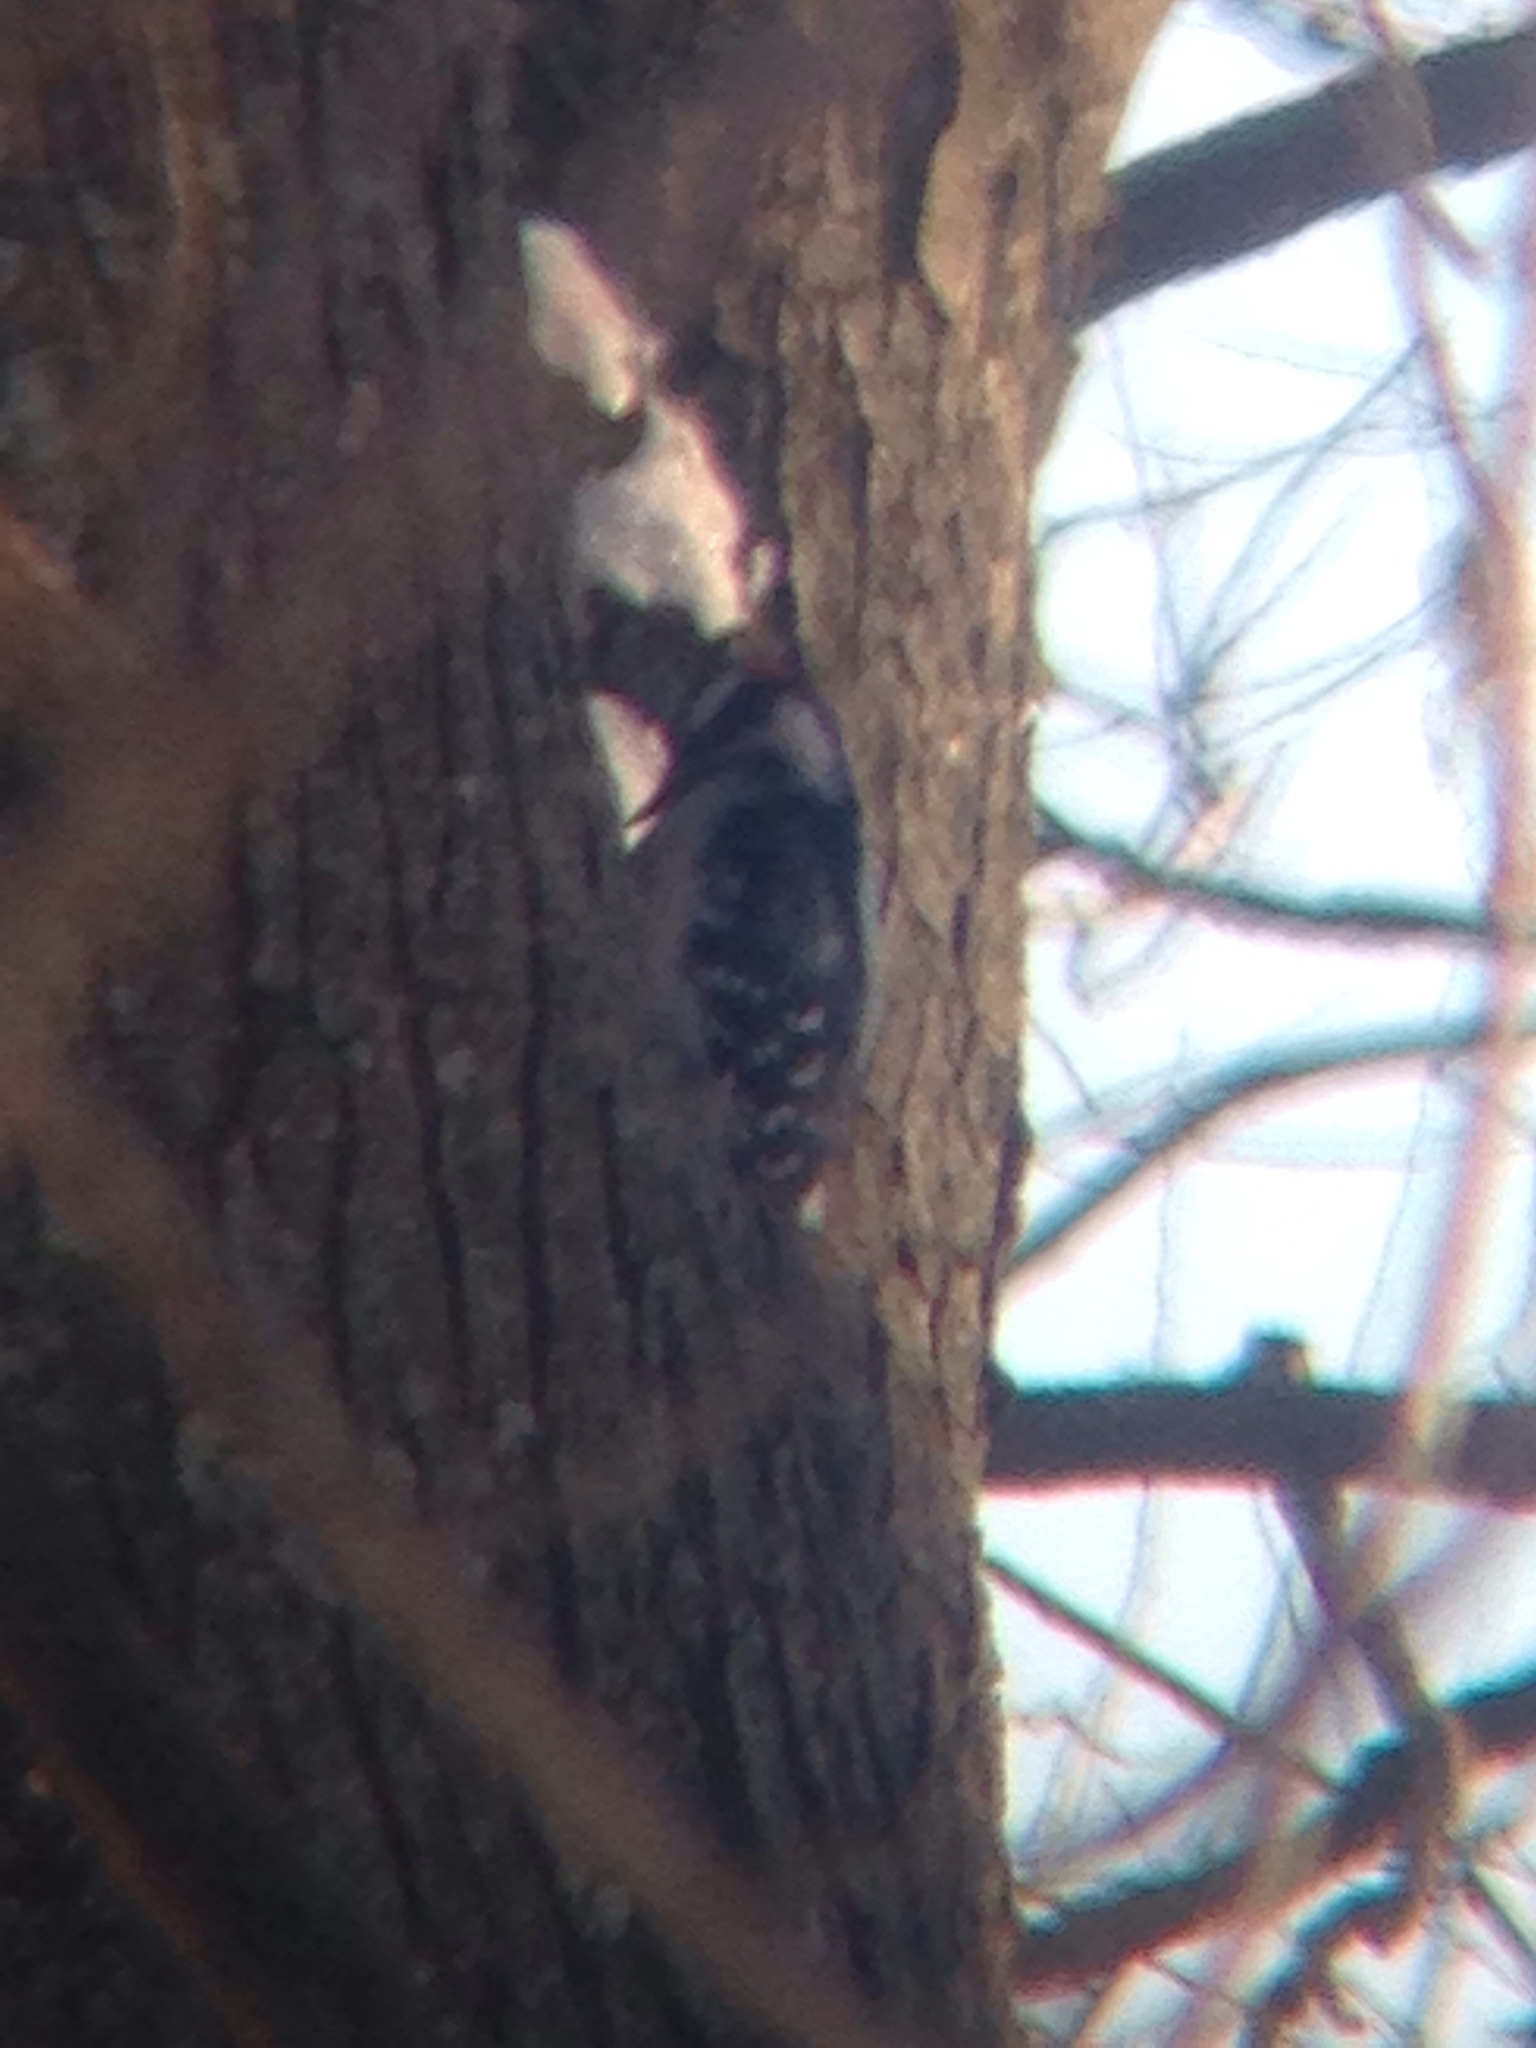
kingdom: Animalia
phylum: Chordata
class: Aves
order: Piciformes
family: Picidae
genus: Dryobates
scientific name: Dryobates pubescens
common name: Downy woodpecker
